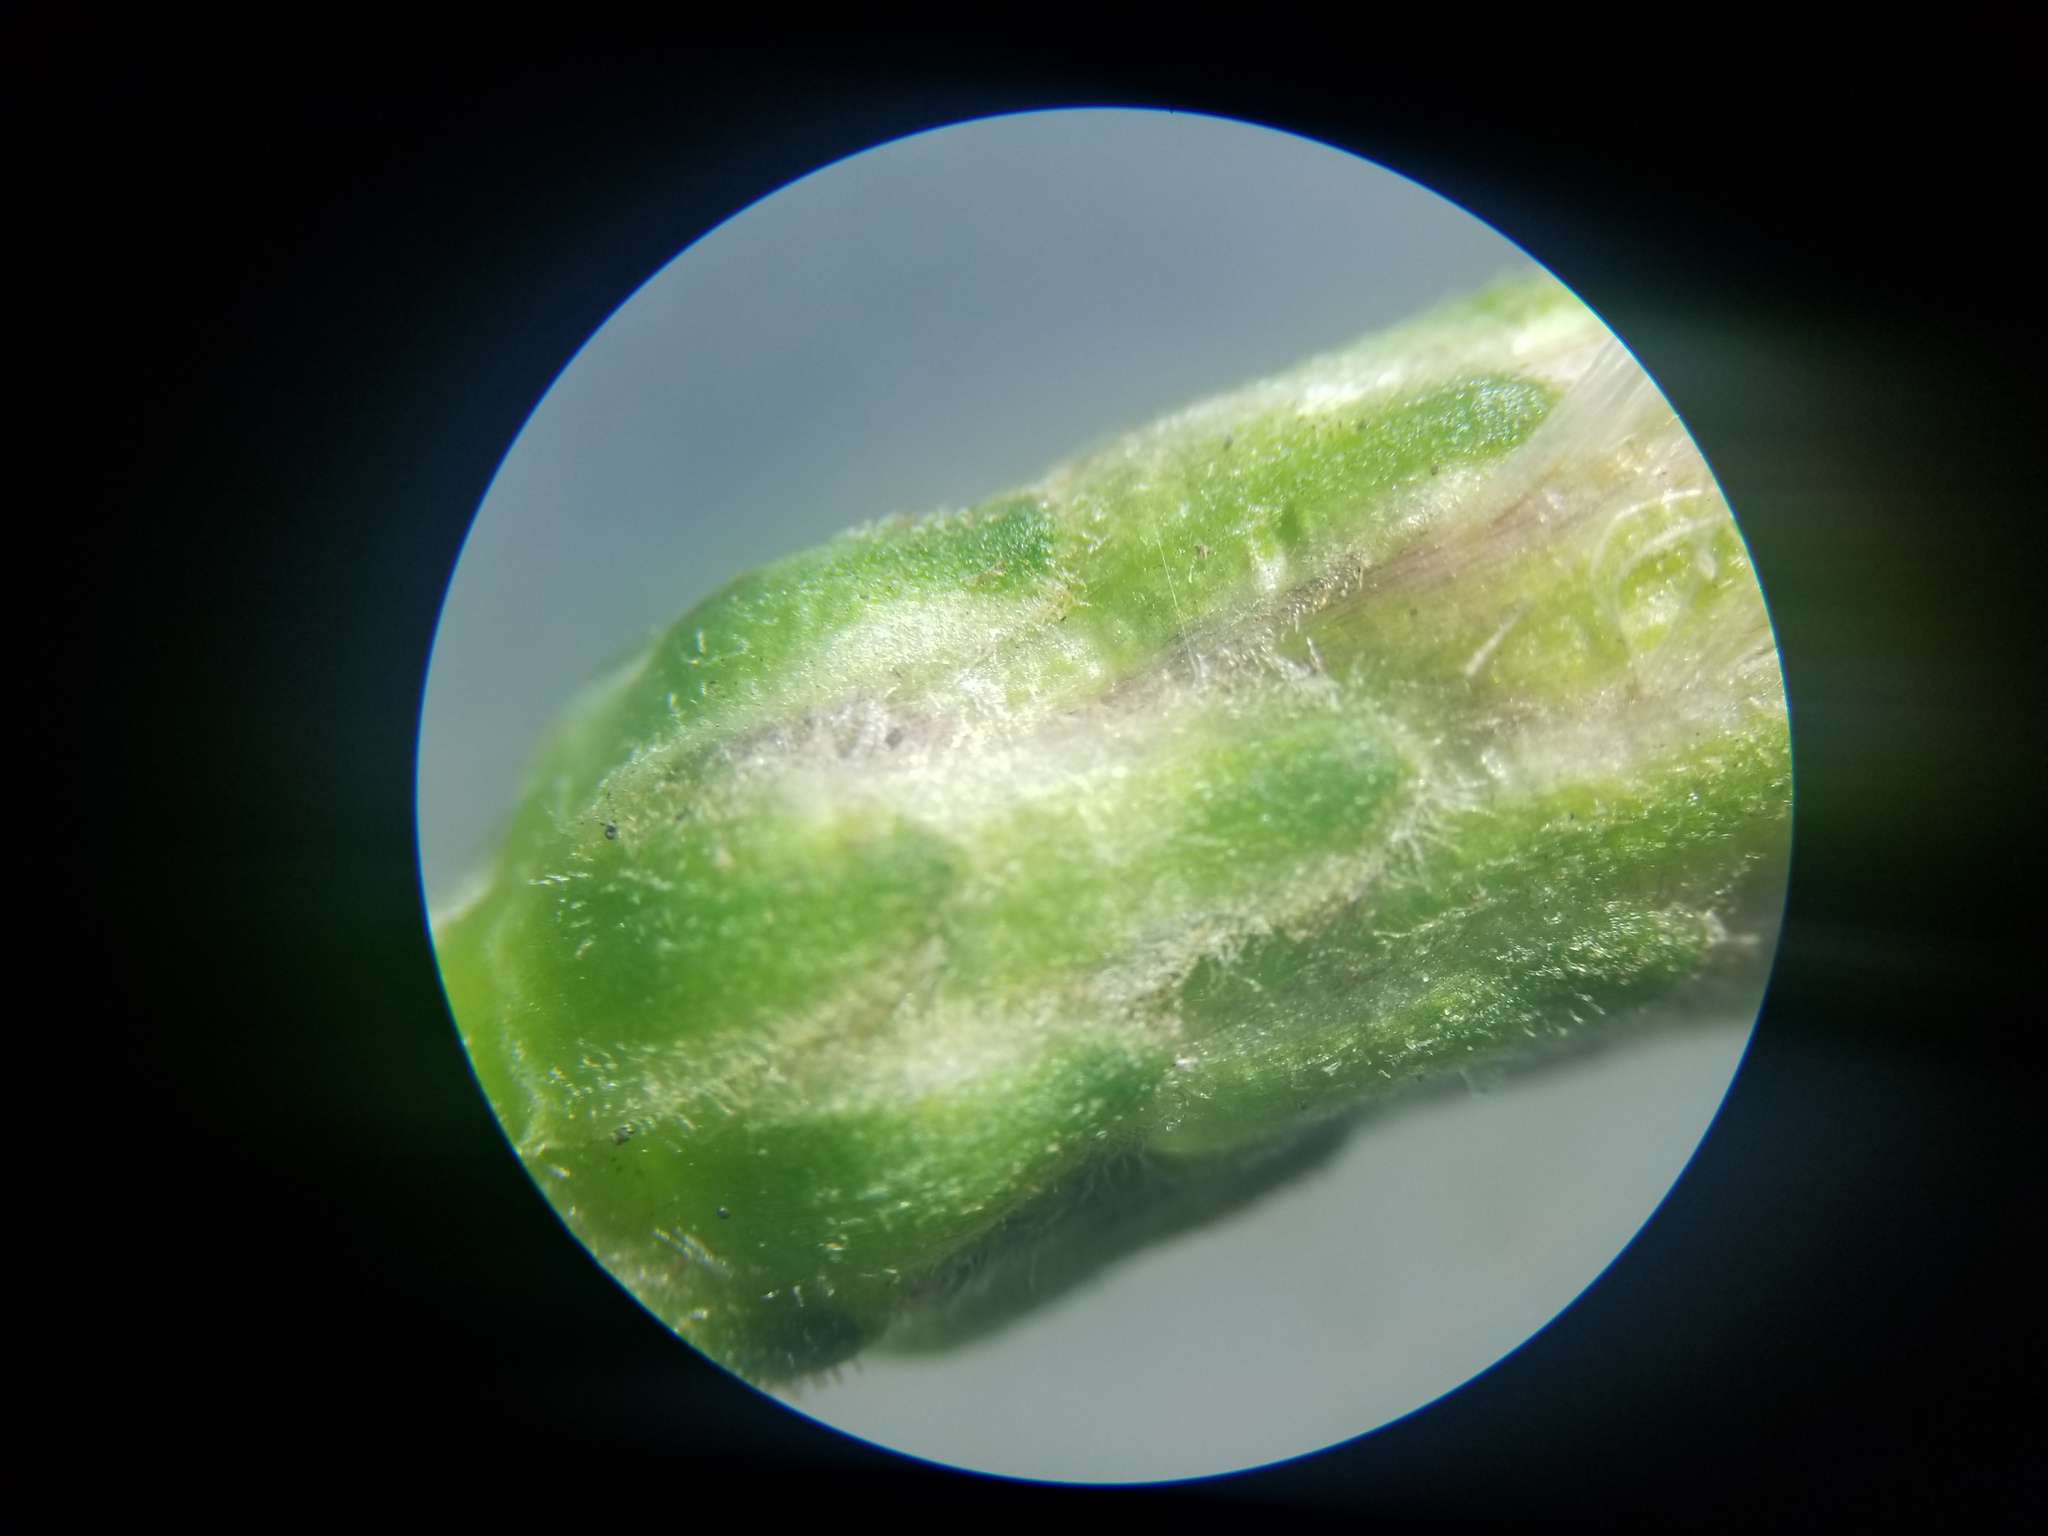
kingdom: Plantae
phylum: Tracheophyta
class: Magnoliopsida
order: Asterales
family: Asteraceae
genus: Eurybia
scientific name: Eurybia macrophylla
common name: Big-leaved aster
